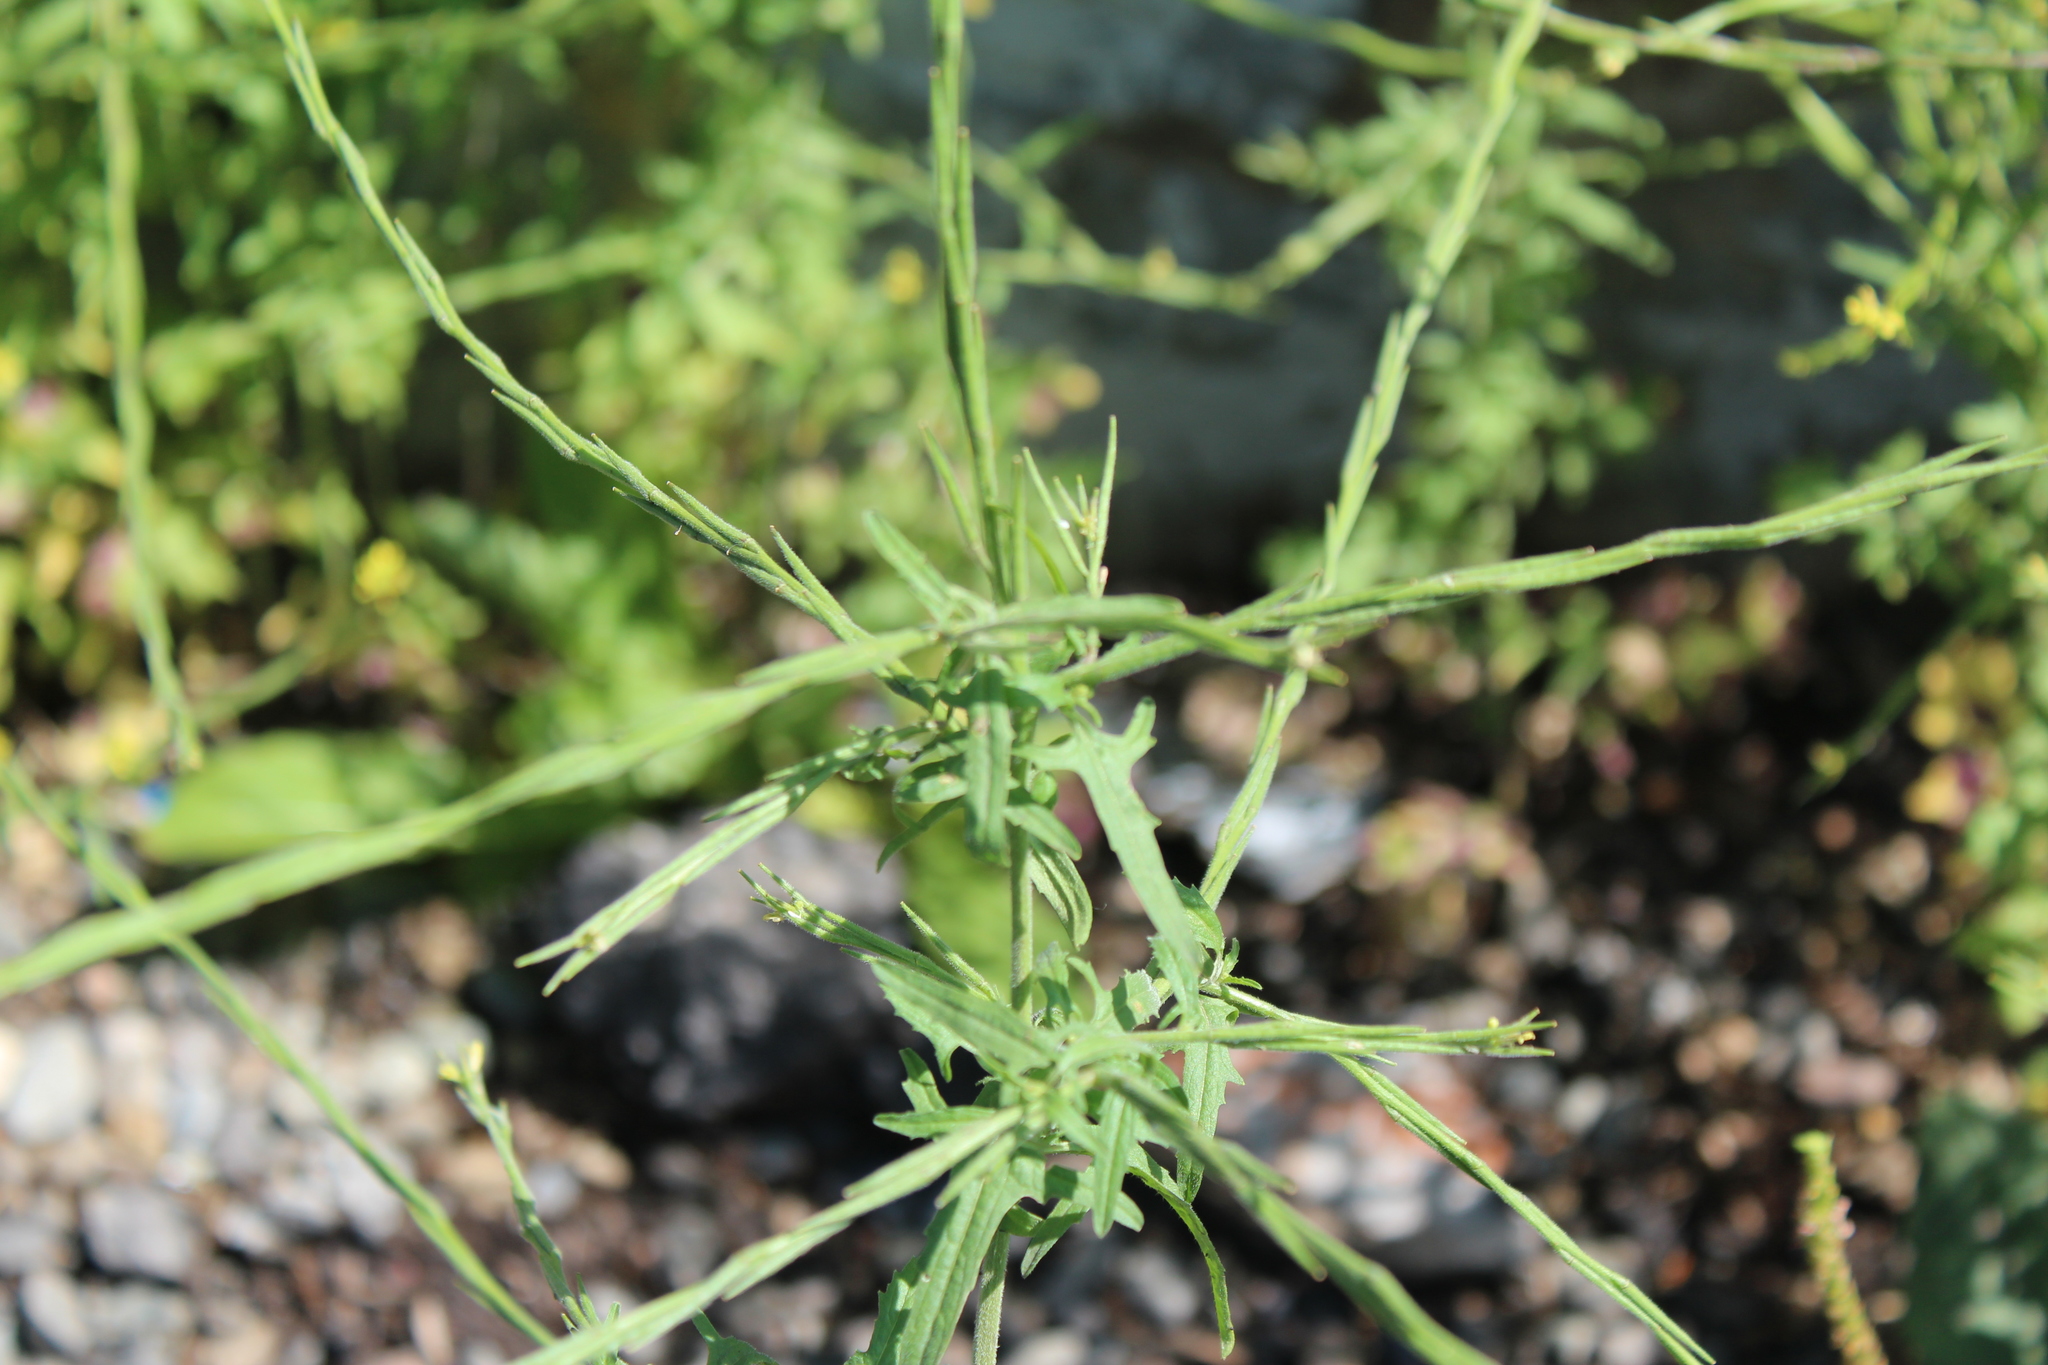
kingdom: Plantae
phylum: Tracheophyta
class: Magnoliopsida
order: Brassicales
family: Brassicaceae
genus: Sisymbrium
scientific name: Sisymbrium officinale
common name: Hedge mustard
